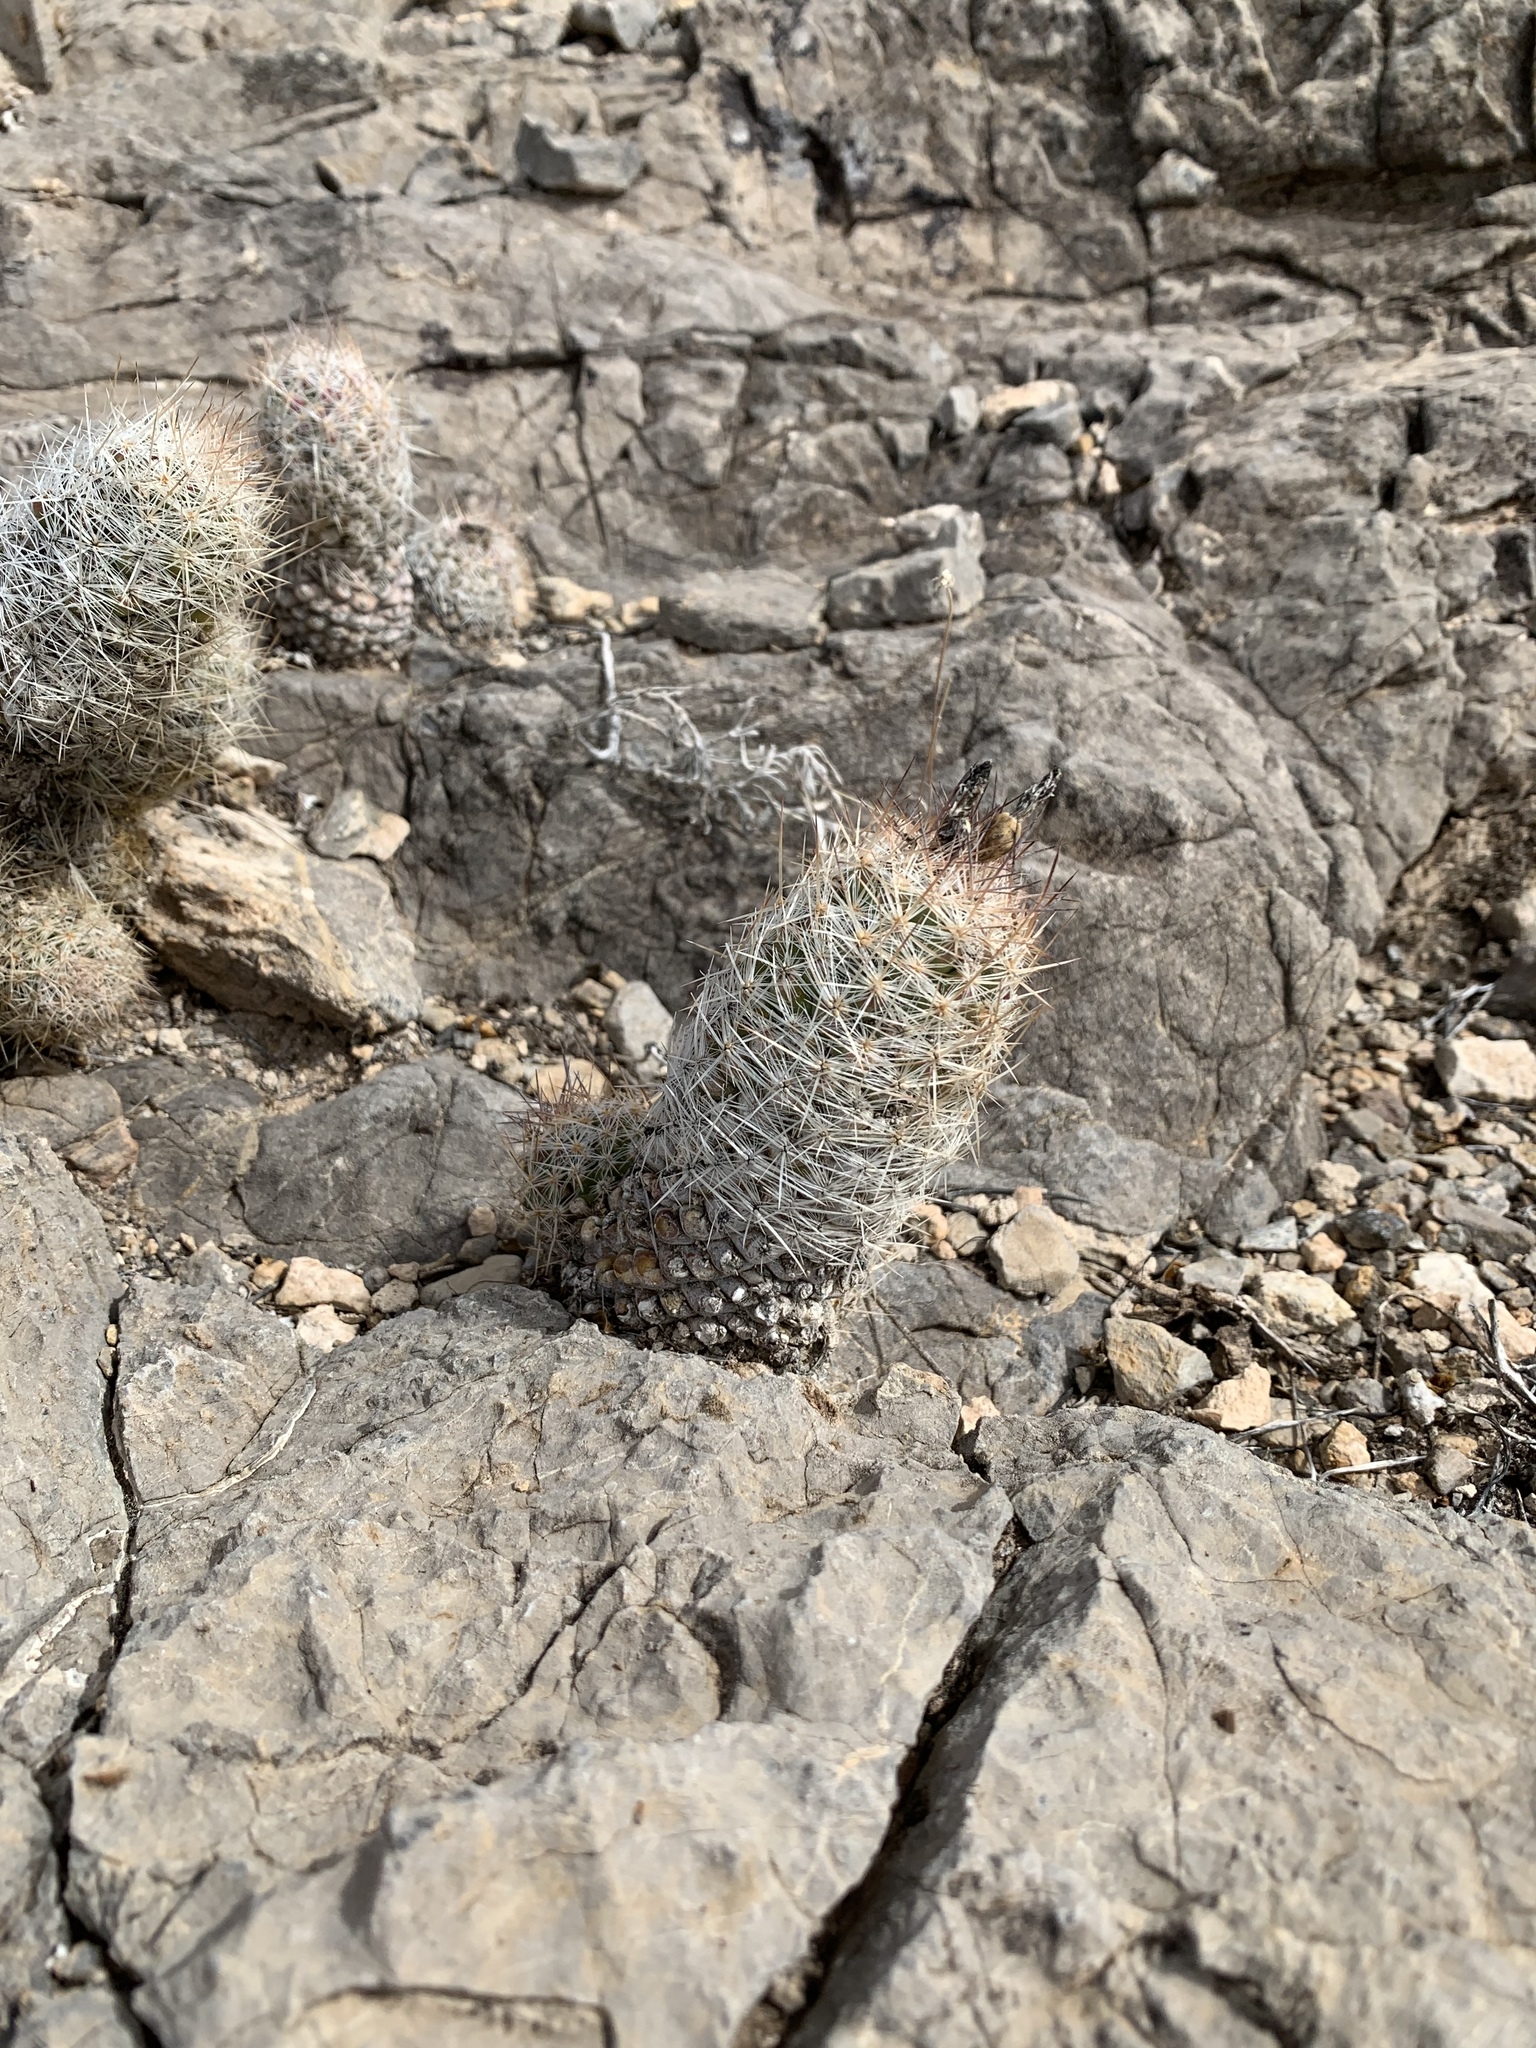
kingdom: Plantae
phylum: Tracheophyta
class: Magnoliopsida
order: Caryophyllales
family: Cactaceae
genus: Pelecyphora
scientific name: Pelecyphora tuberculosa
